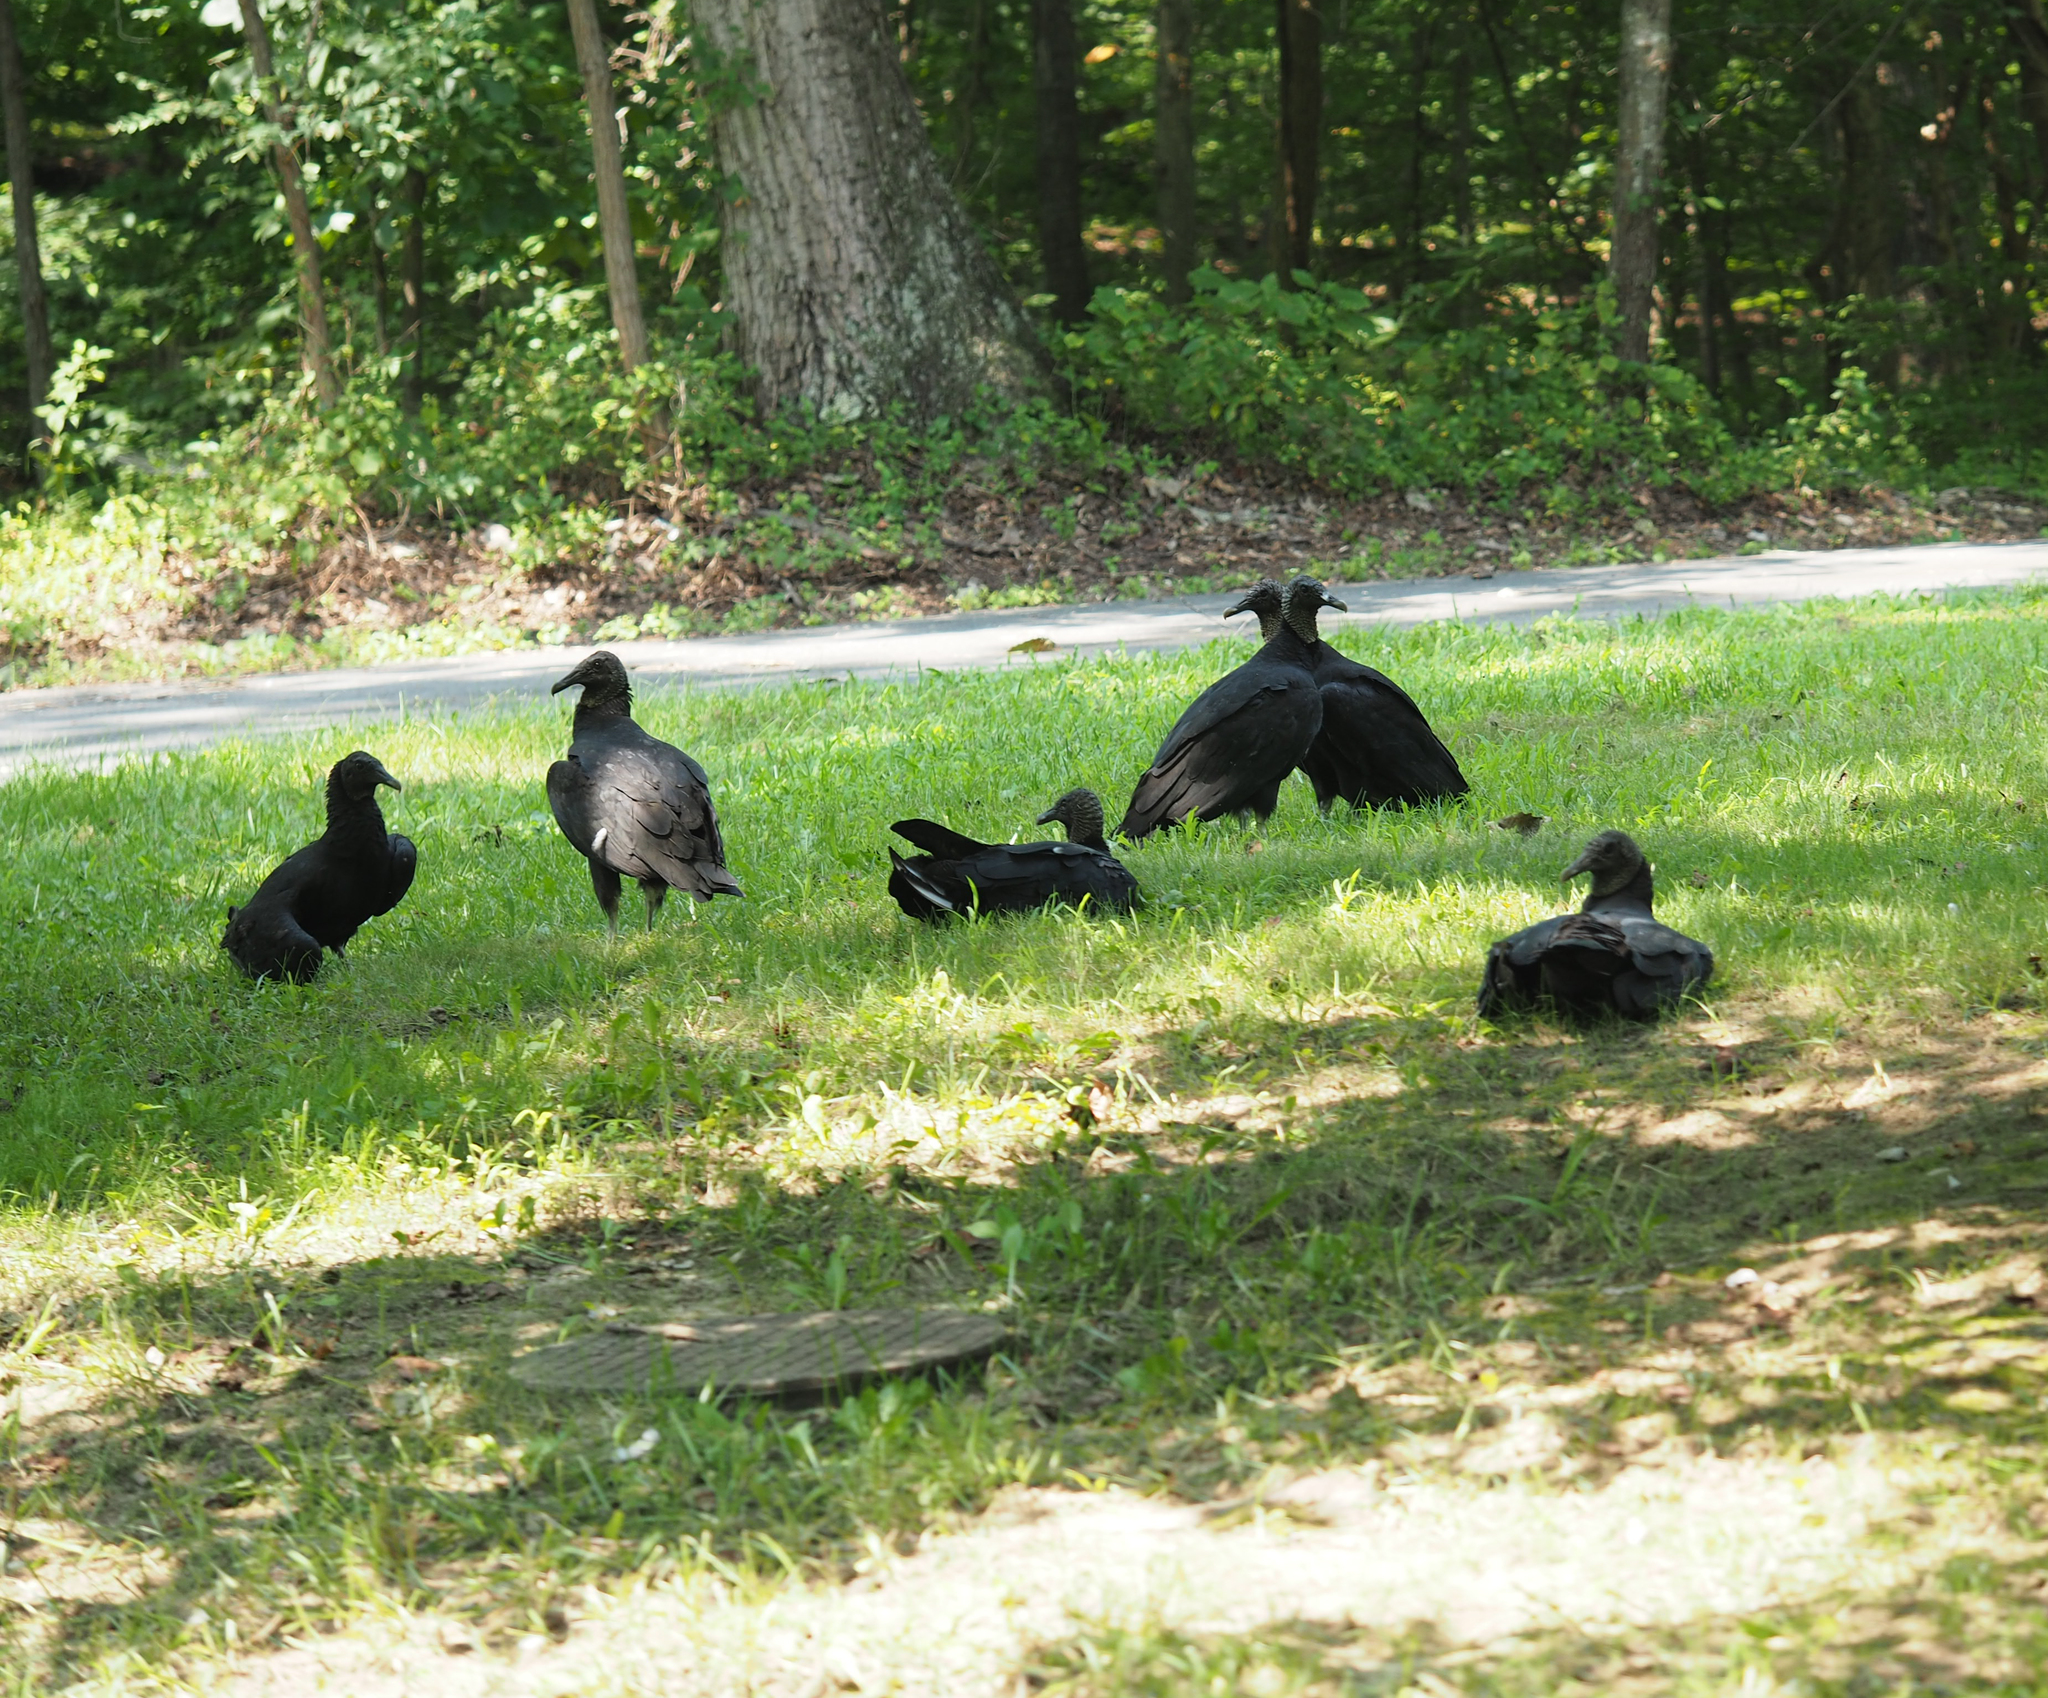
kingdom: Animalia
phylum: Chordata
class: Aves
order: Accipitriformes
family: Cathartidae
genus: Coragyps
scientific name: Coragyps atratus
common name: Black vulture
